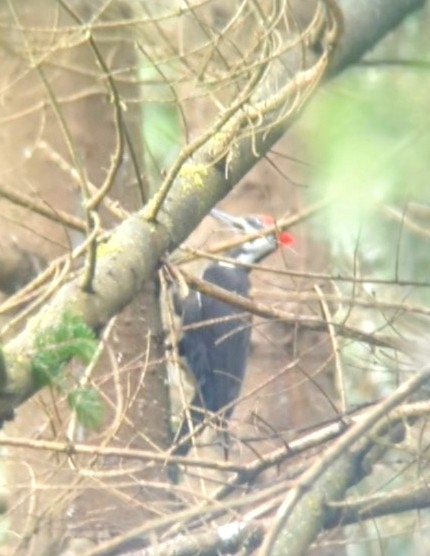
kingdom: Animalia
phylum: Chordata
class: Aves
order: Piciformes
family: Picidae
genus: Dryocopus
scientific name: Dryocopus pileatus
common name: Pileated woodpecker
